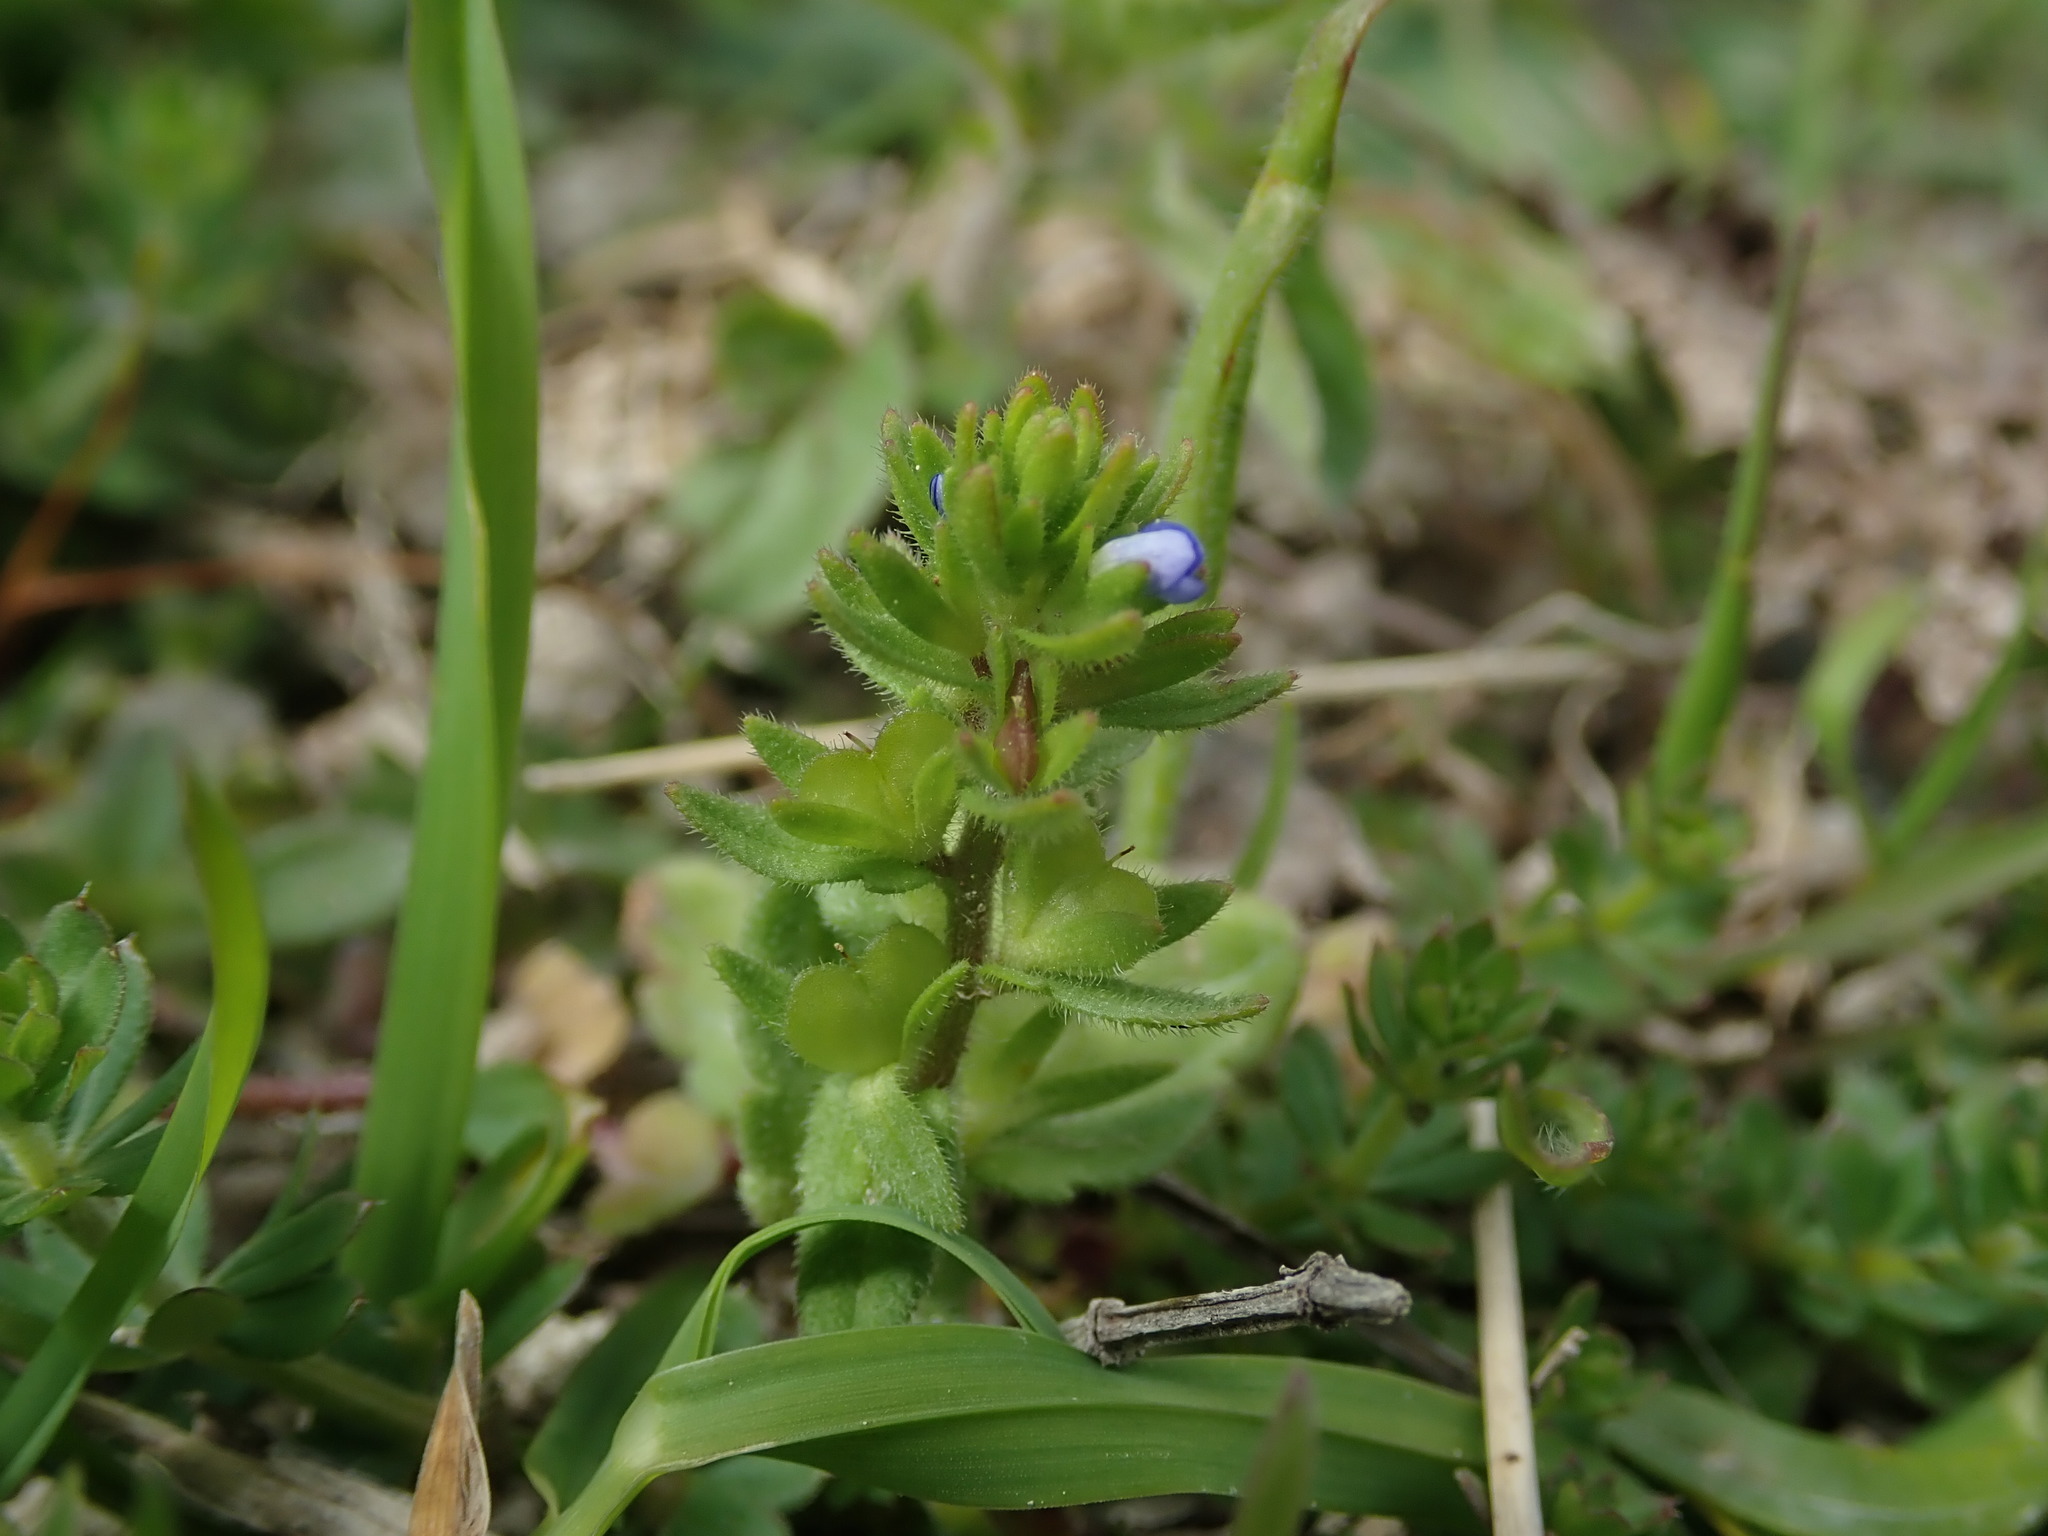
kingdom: Plantae
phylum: Tracheophyta
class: Magnoliopsida
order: Lamiales
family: Plantaginaceae
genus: Veronica
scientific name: Veronica arvensis
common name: Corn speedwell
